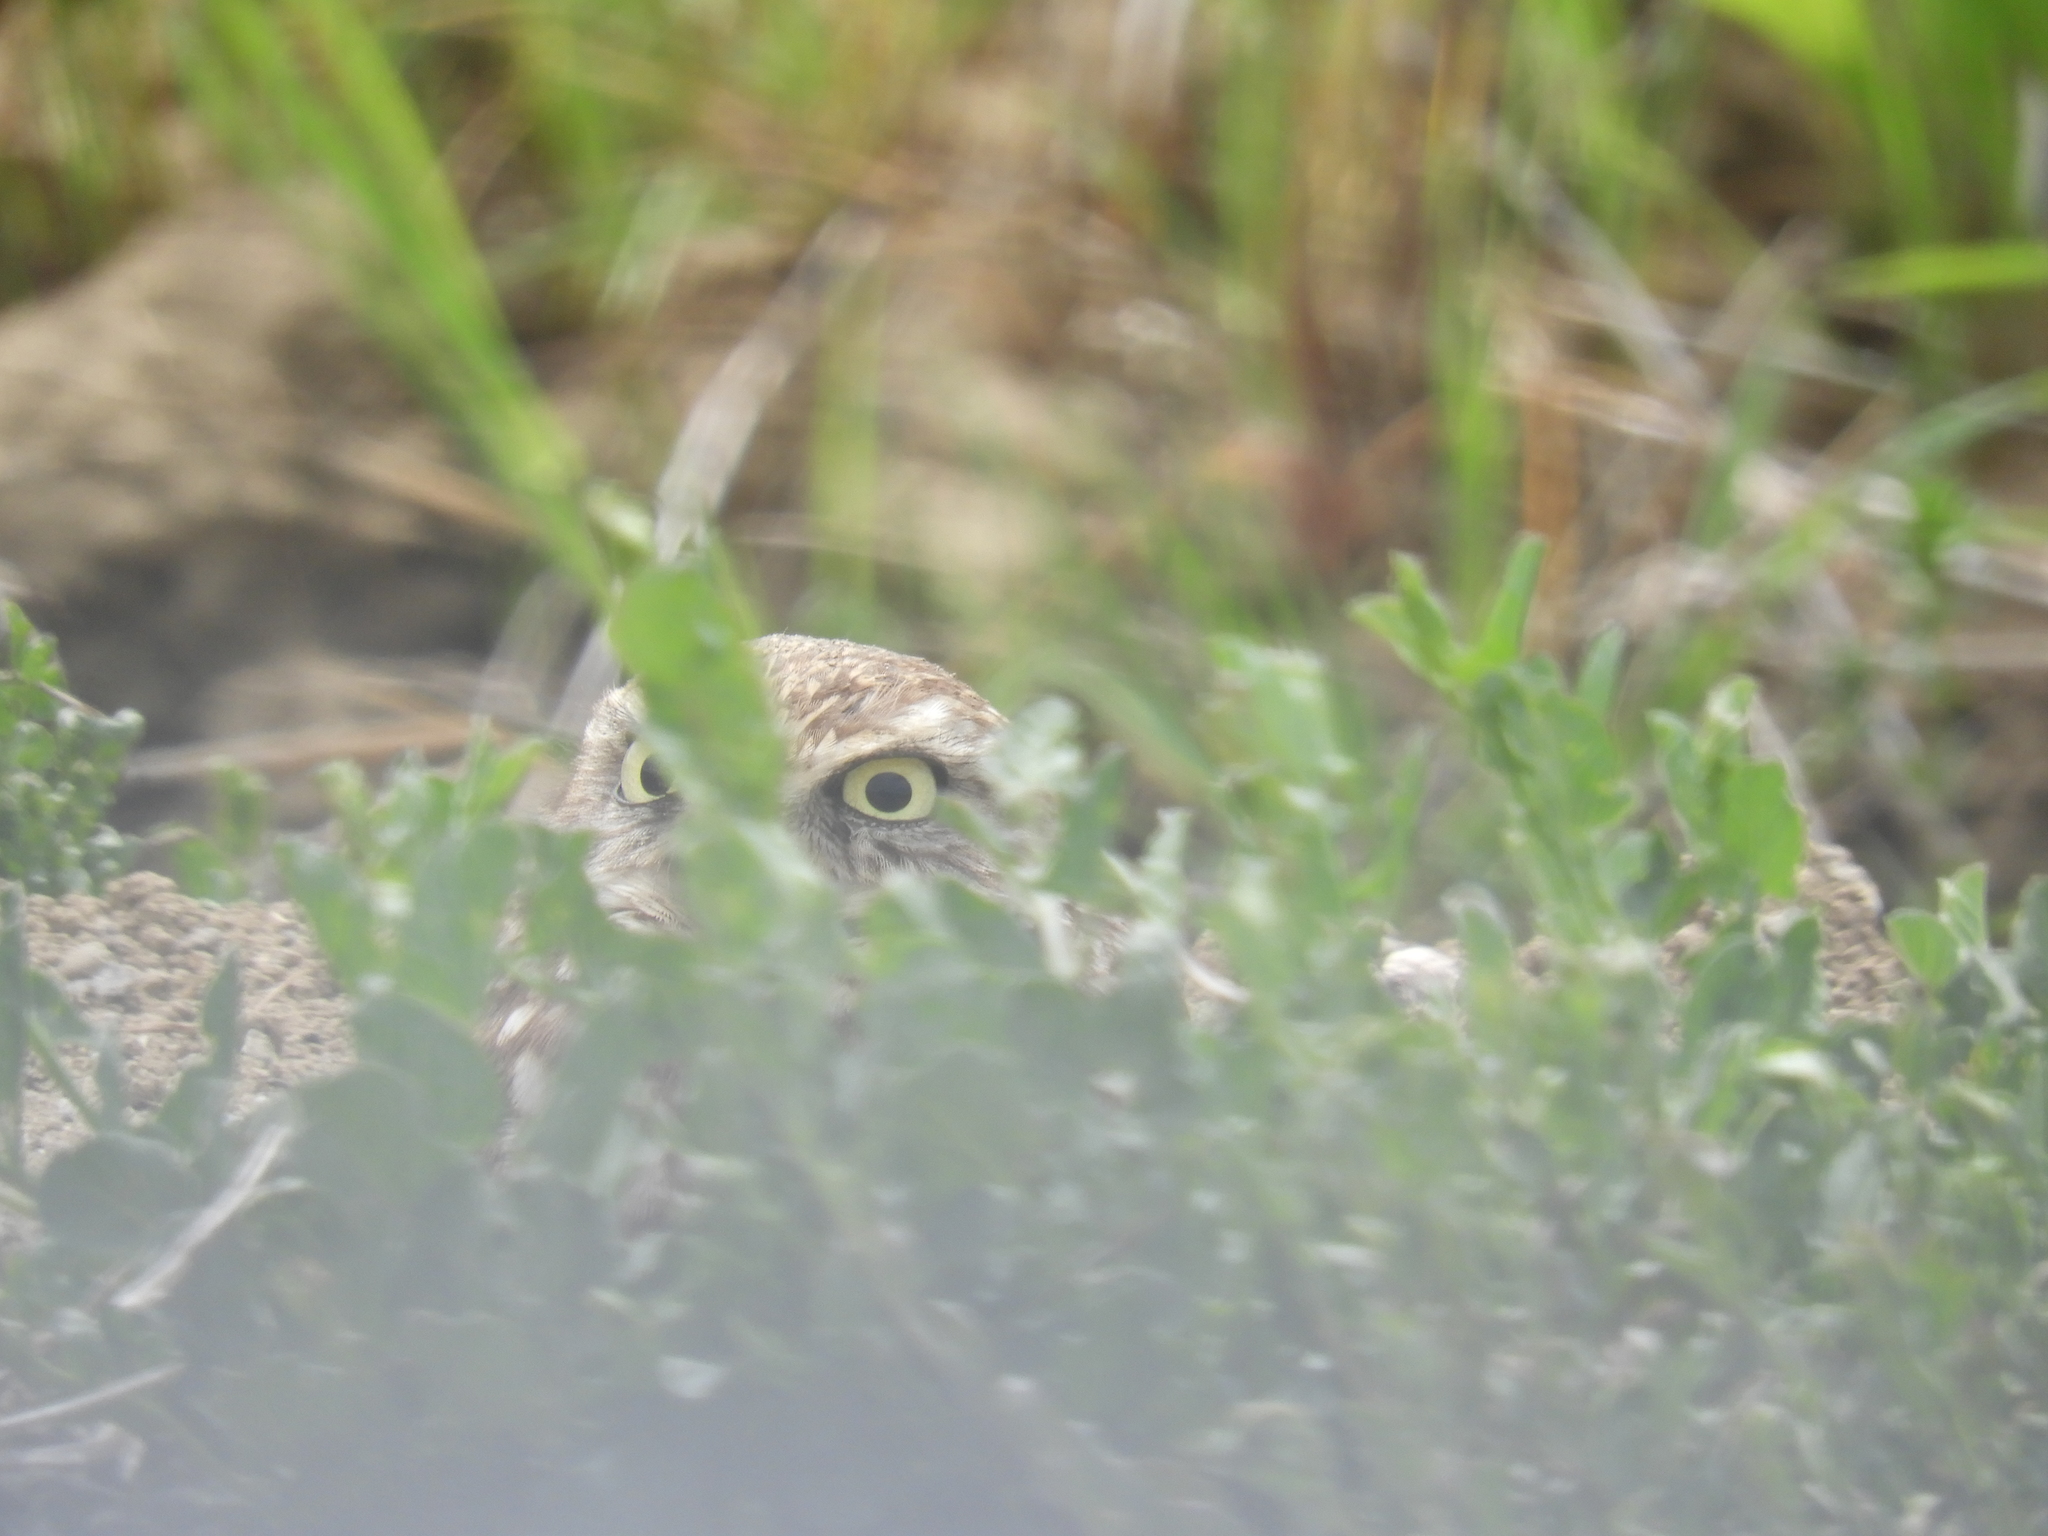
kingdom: Animalia
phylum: Chordata
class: Aves
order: Strigiformes
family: Strigidae
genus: Athene
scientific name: Athene cunicularia
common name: Burrowing owl
